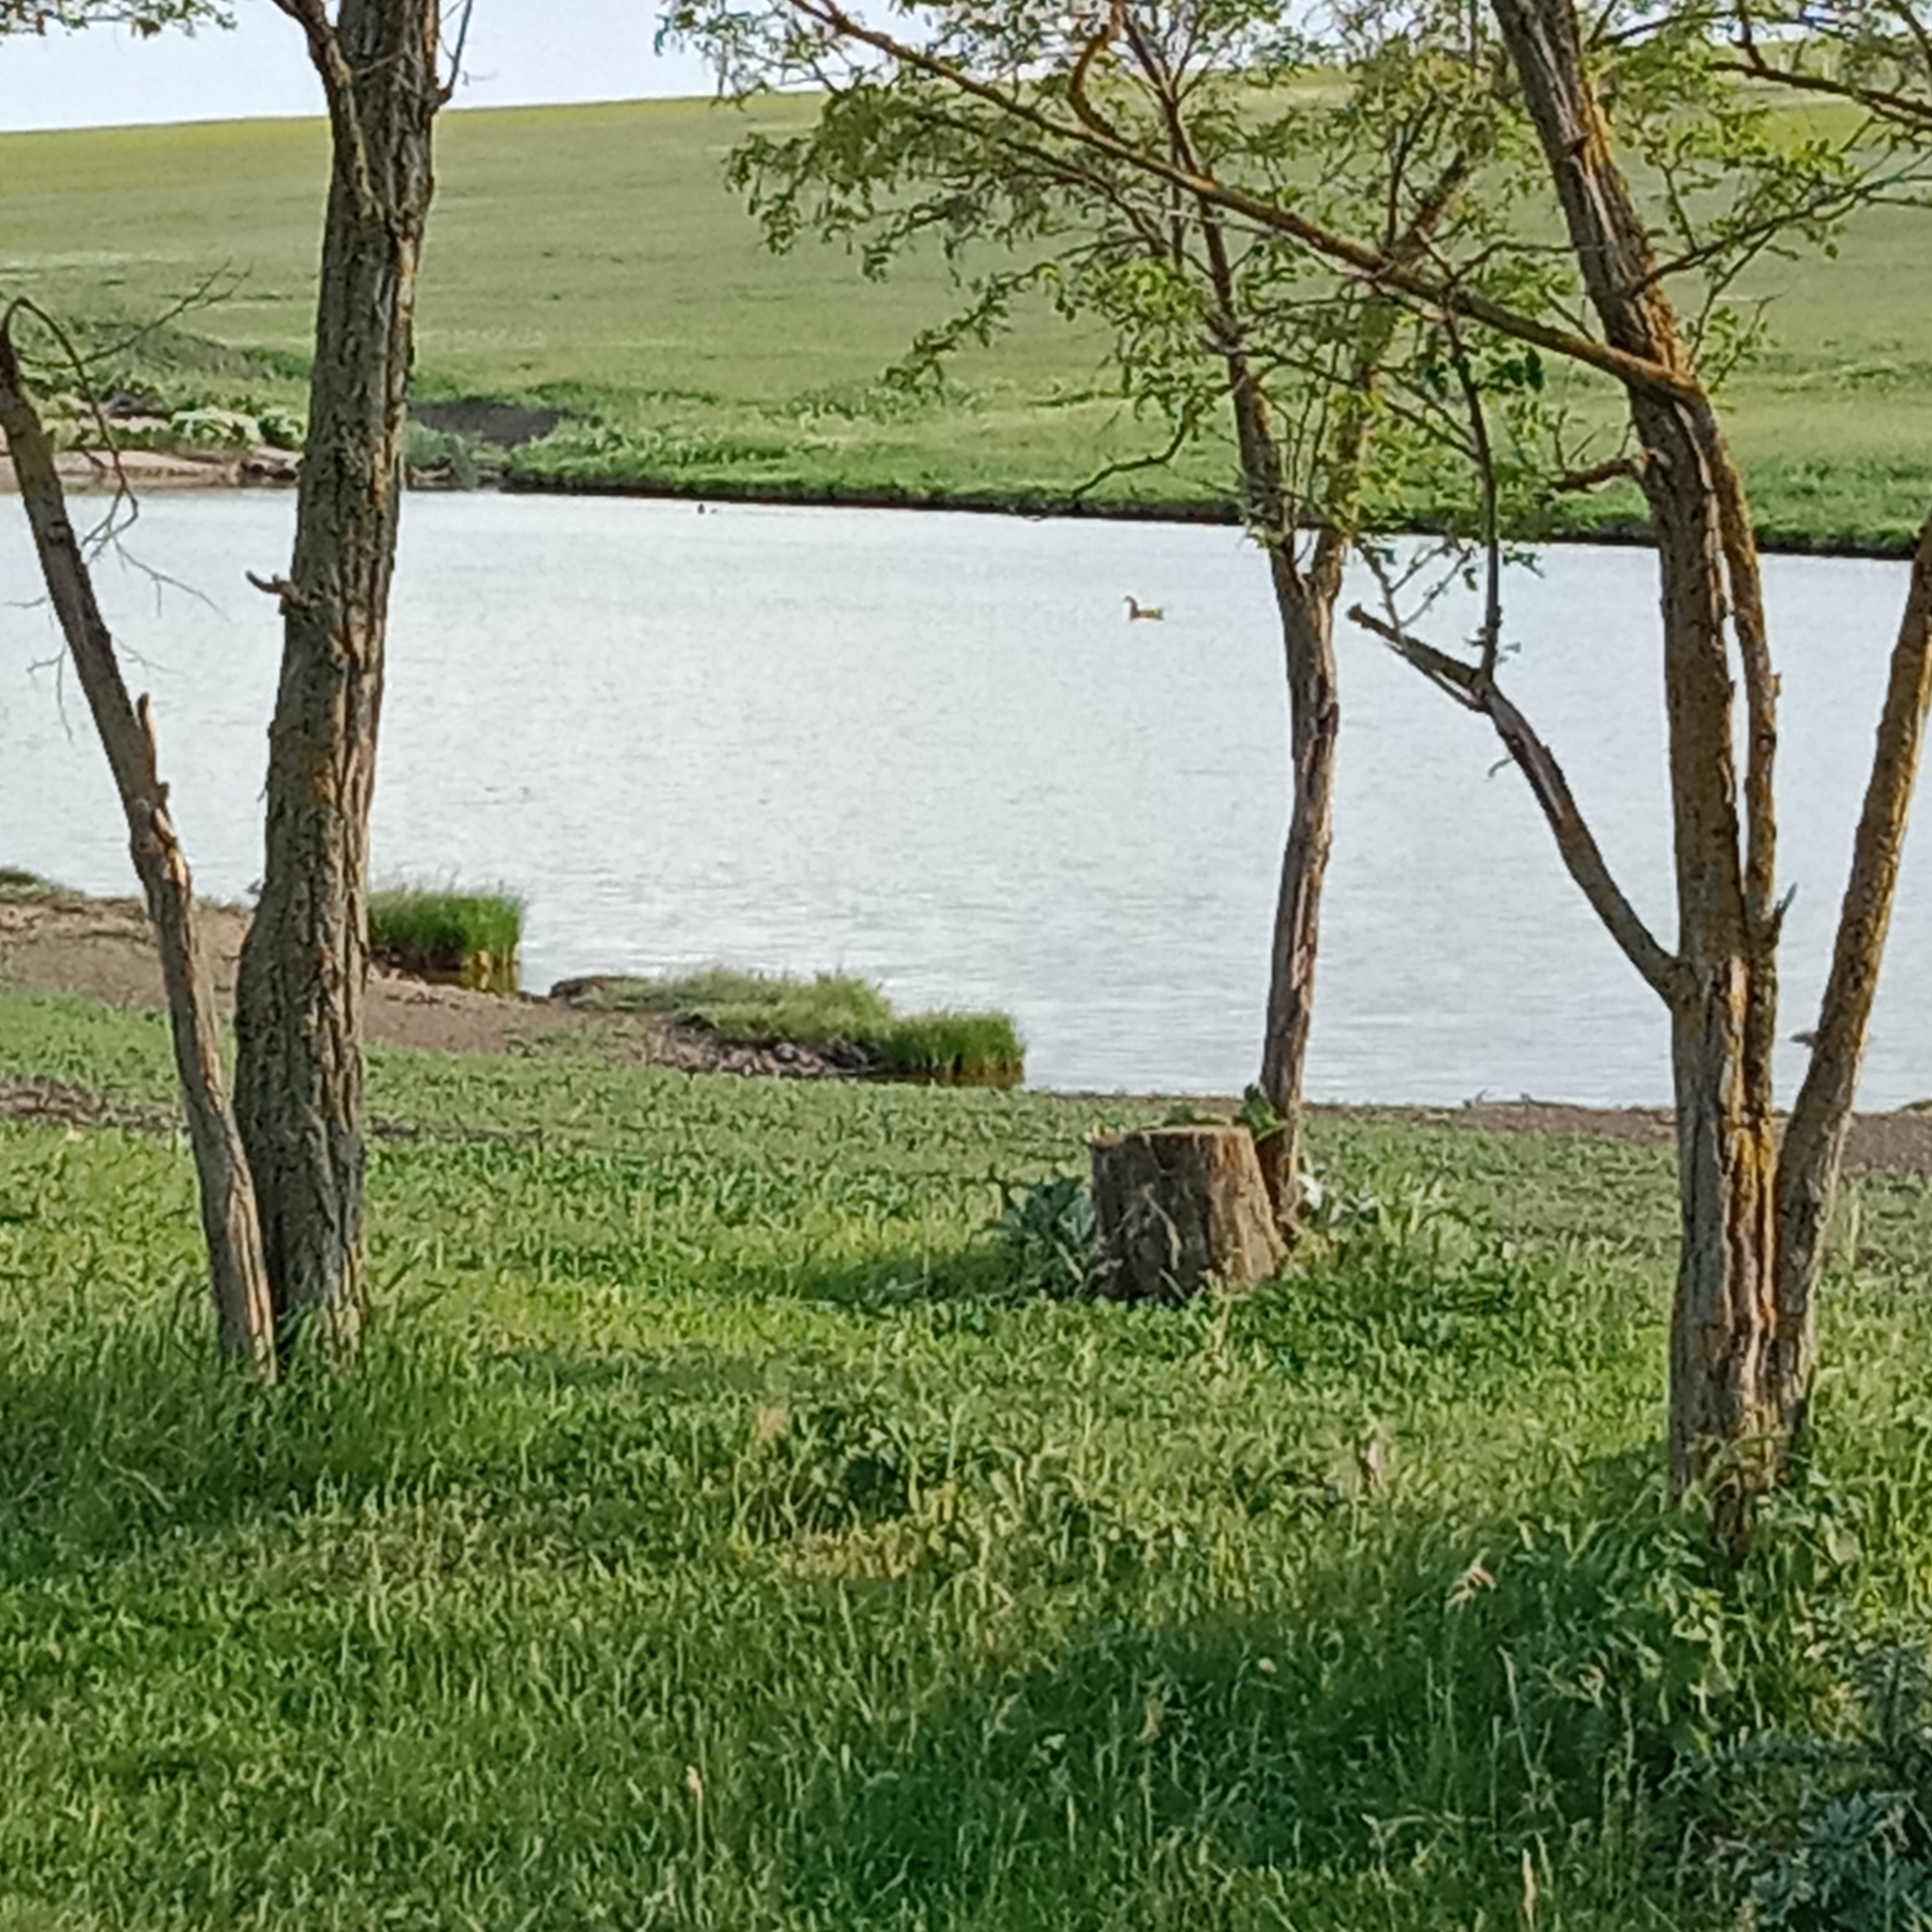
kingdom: Animalia
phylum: Chordata
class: Aves
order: Anseriformes
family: Anatidae
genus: Tadorna
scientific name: Tadorna ferruginea
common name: Ruddy shelduck
